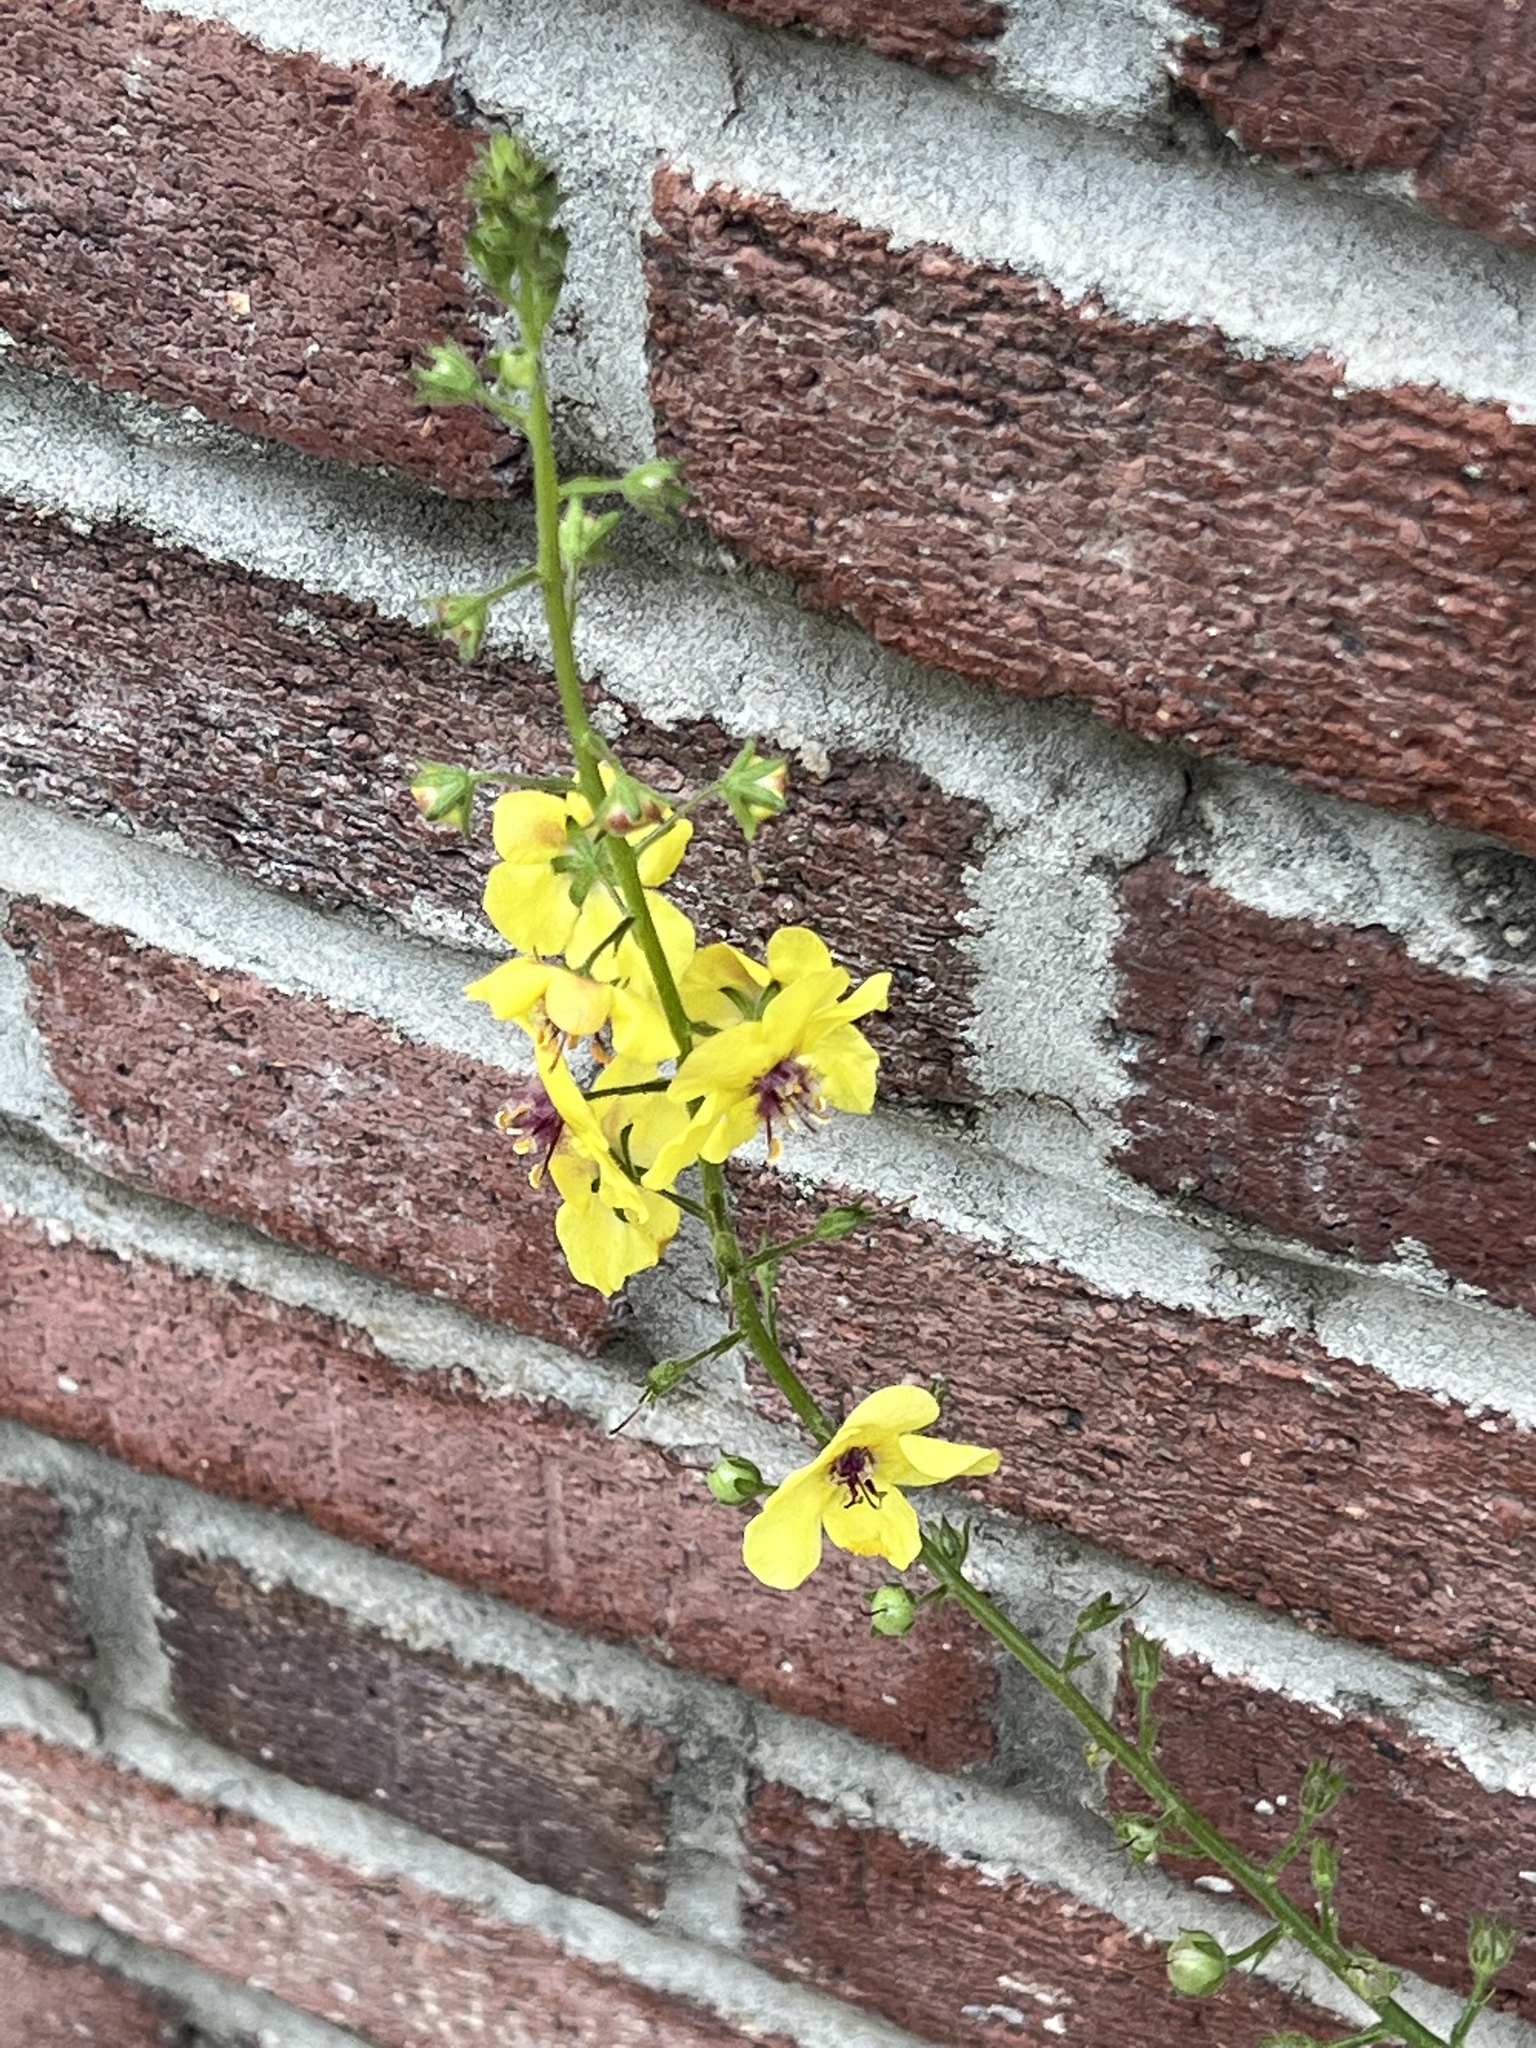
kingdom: Plantae
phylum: Tracheophyta
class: Magnoliopsida
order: Lamiales
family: Scrophulariaceae
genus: Verbascum
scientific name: Verbascum blattaria
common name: Moth mullein
